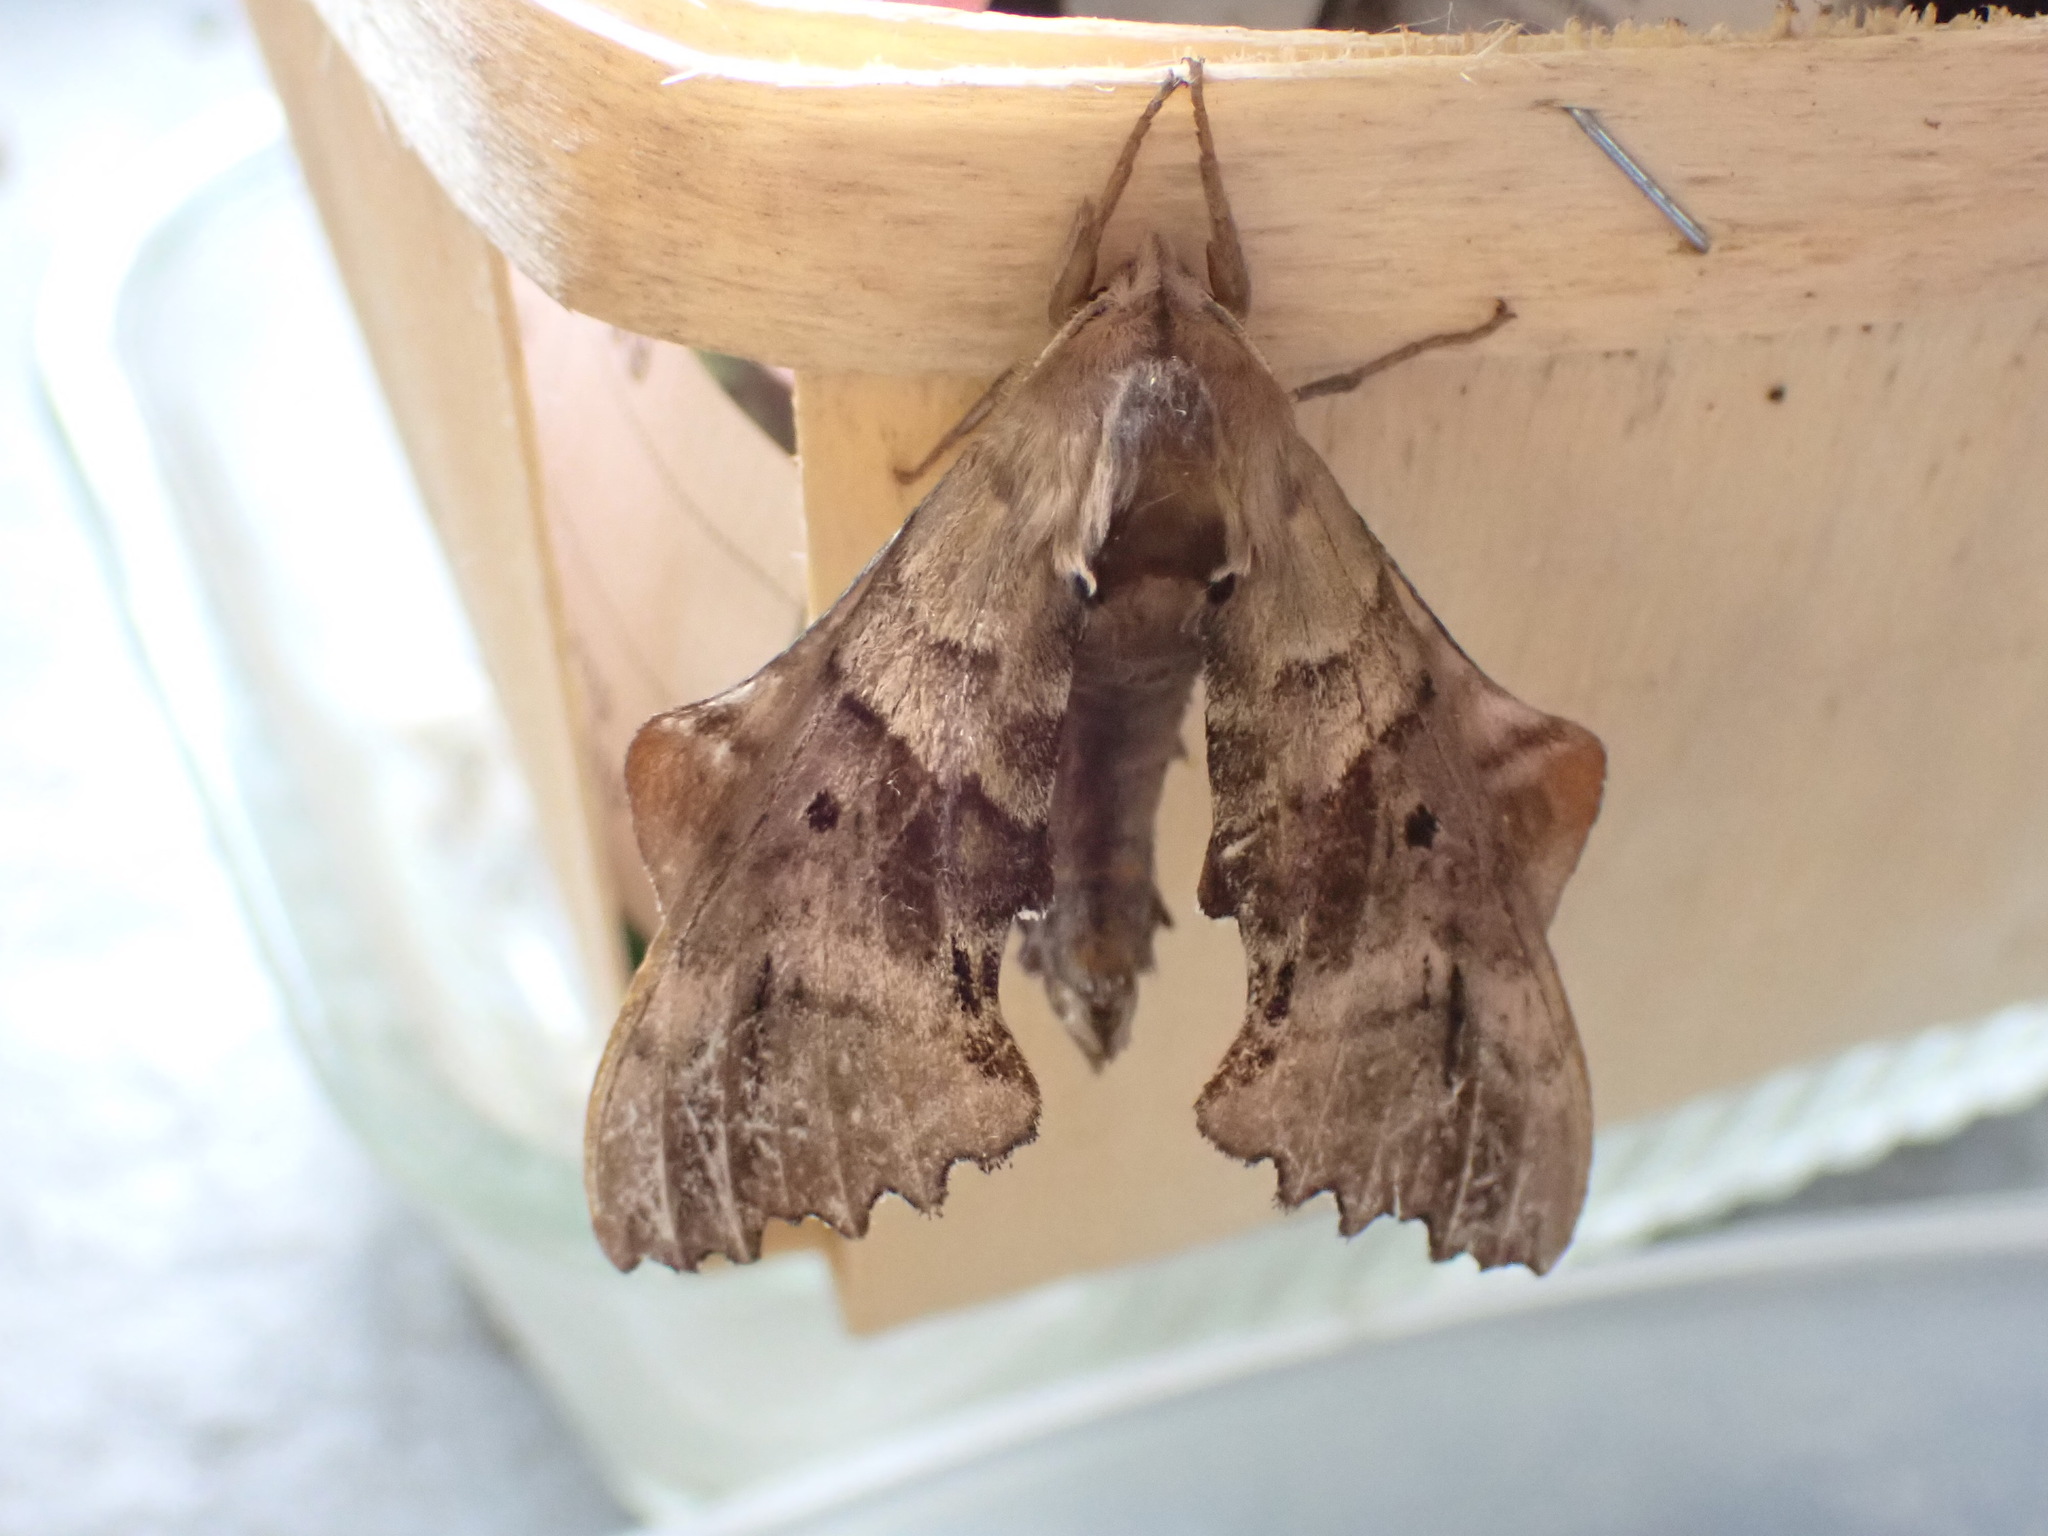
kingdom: Animalia
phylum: Arthropoda
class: Insecta
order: Lepidoptera
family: Sphingidae
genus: Paonias
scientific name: Paonias excaecata
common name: Blind-eyed sphinx
